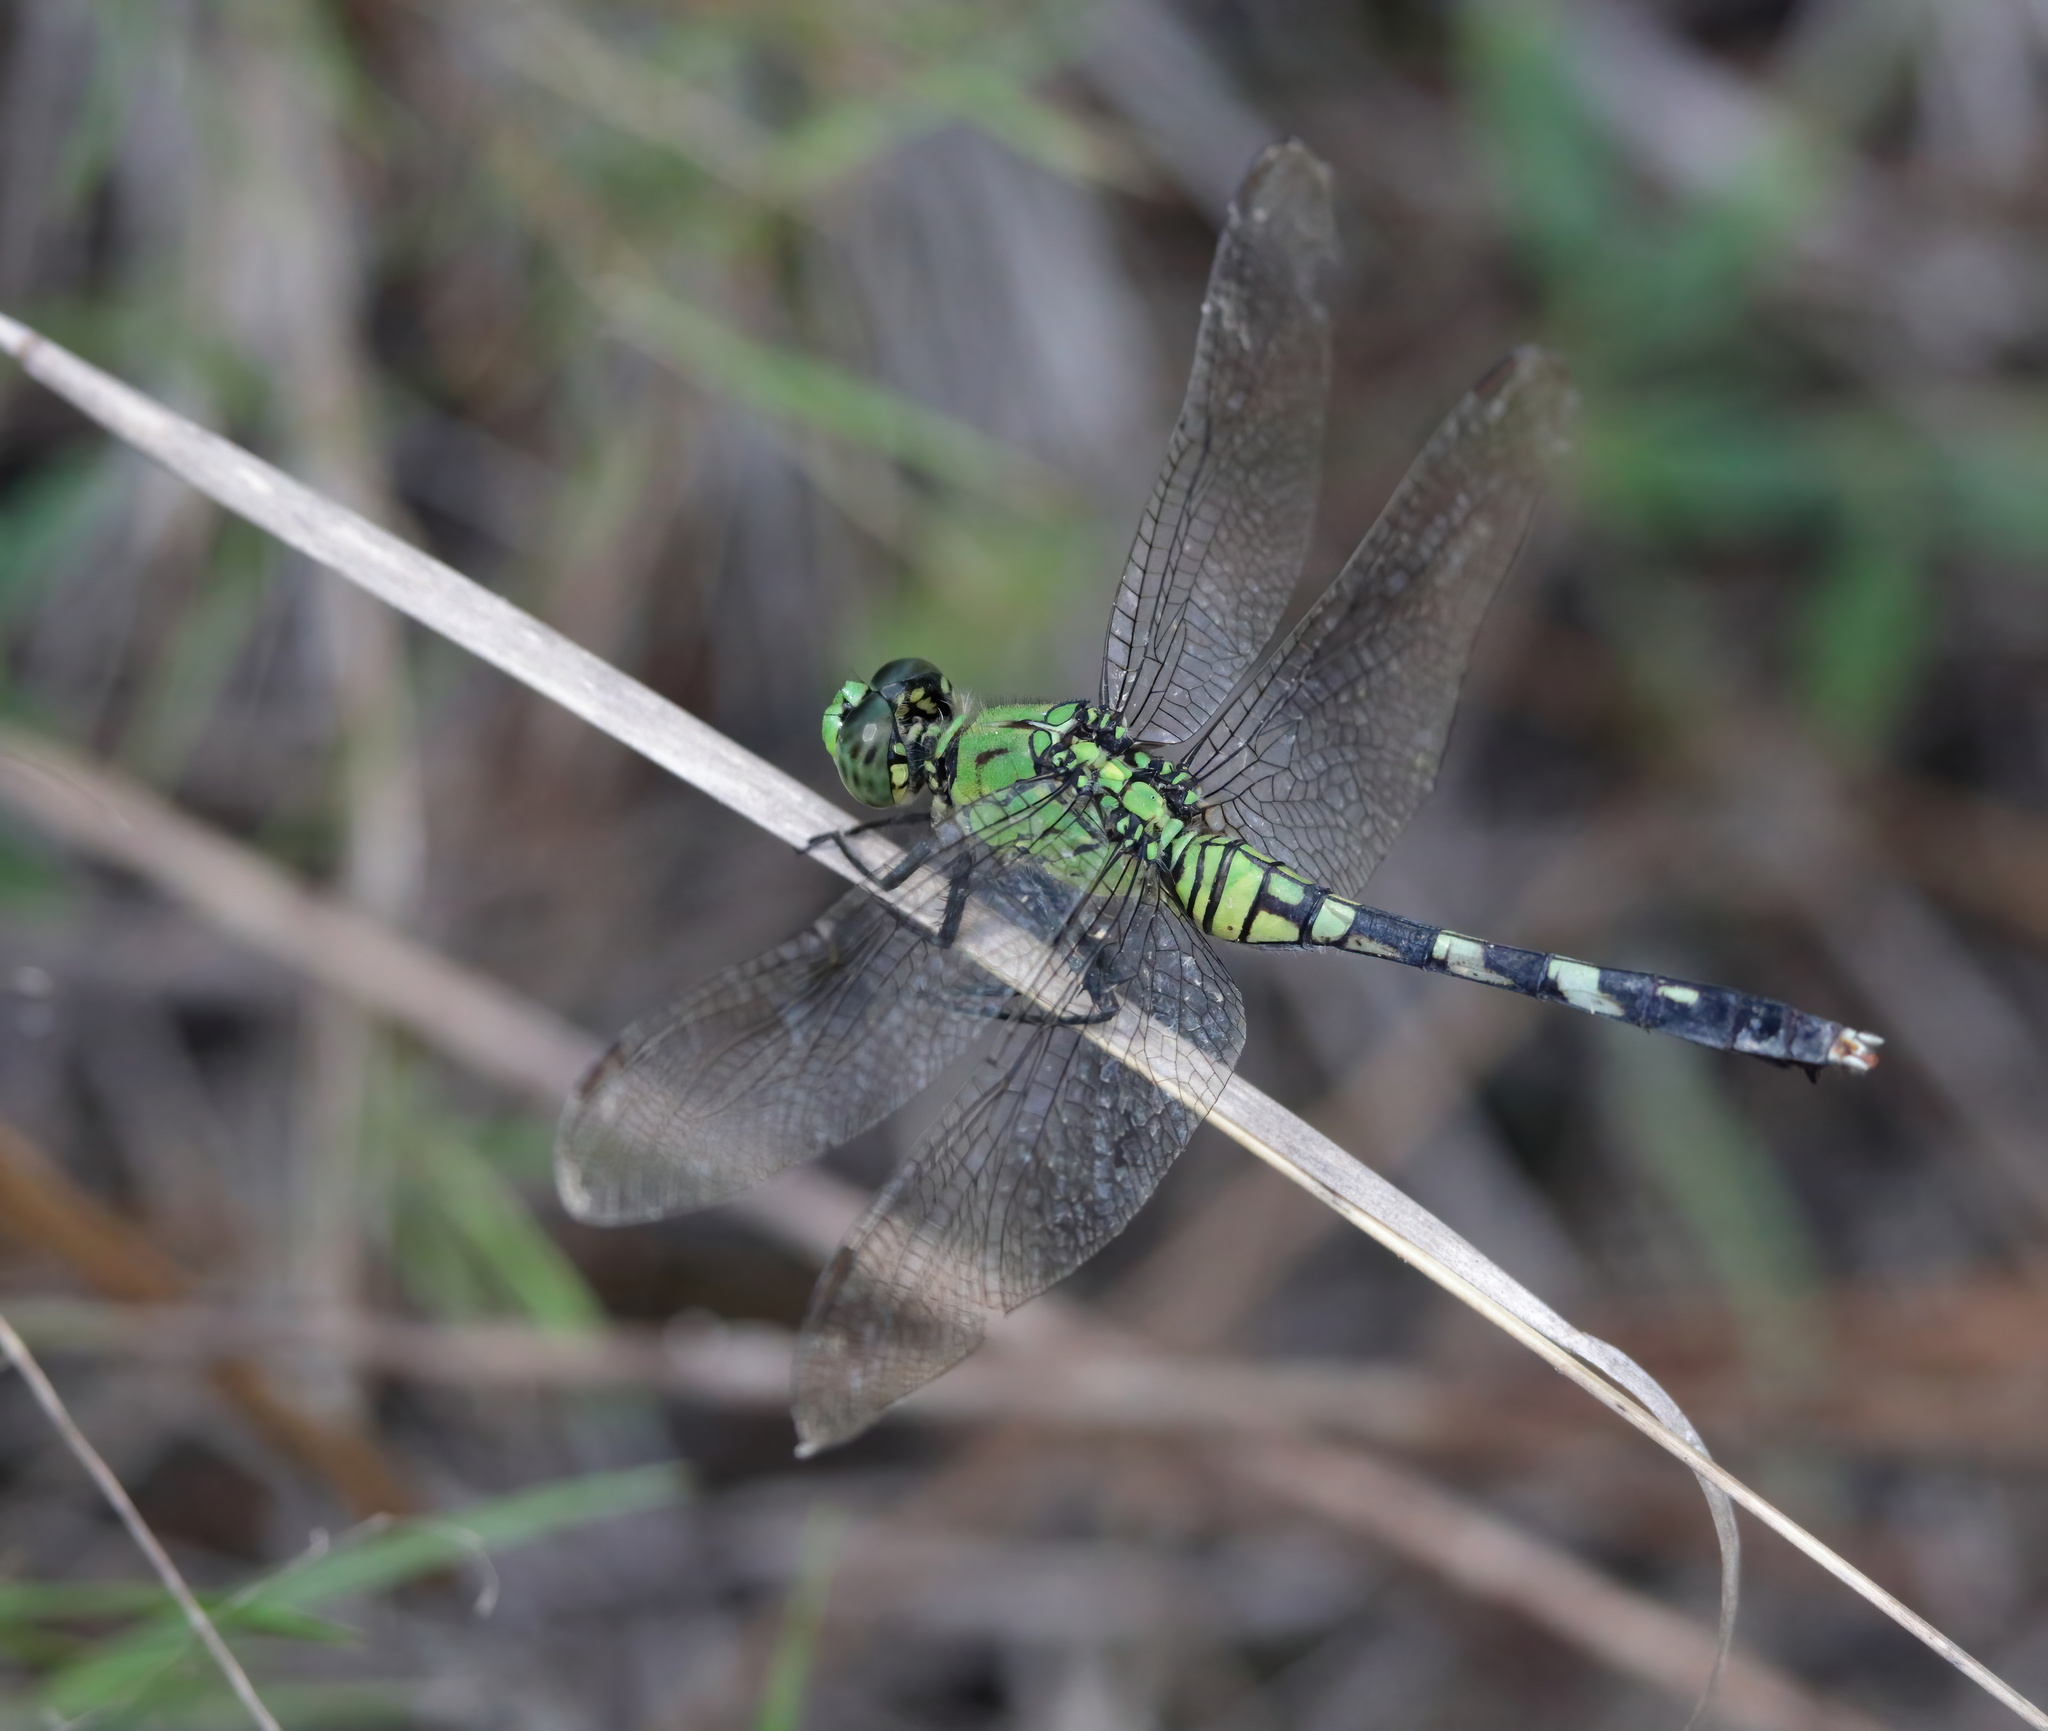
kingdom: Animalia
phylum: Arthropoda
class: Insecta
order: Odonata
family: Libellulidae
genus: Erythemis
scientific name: Erythemis simplicicollis
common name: Eastern pondhawk
